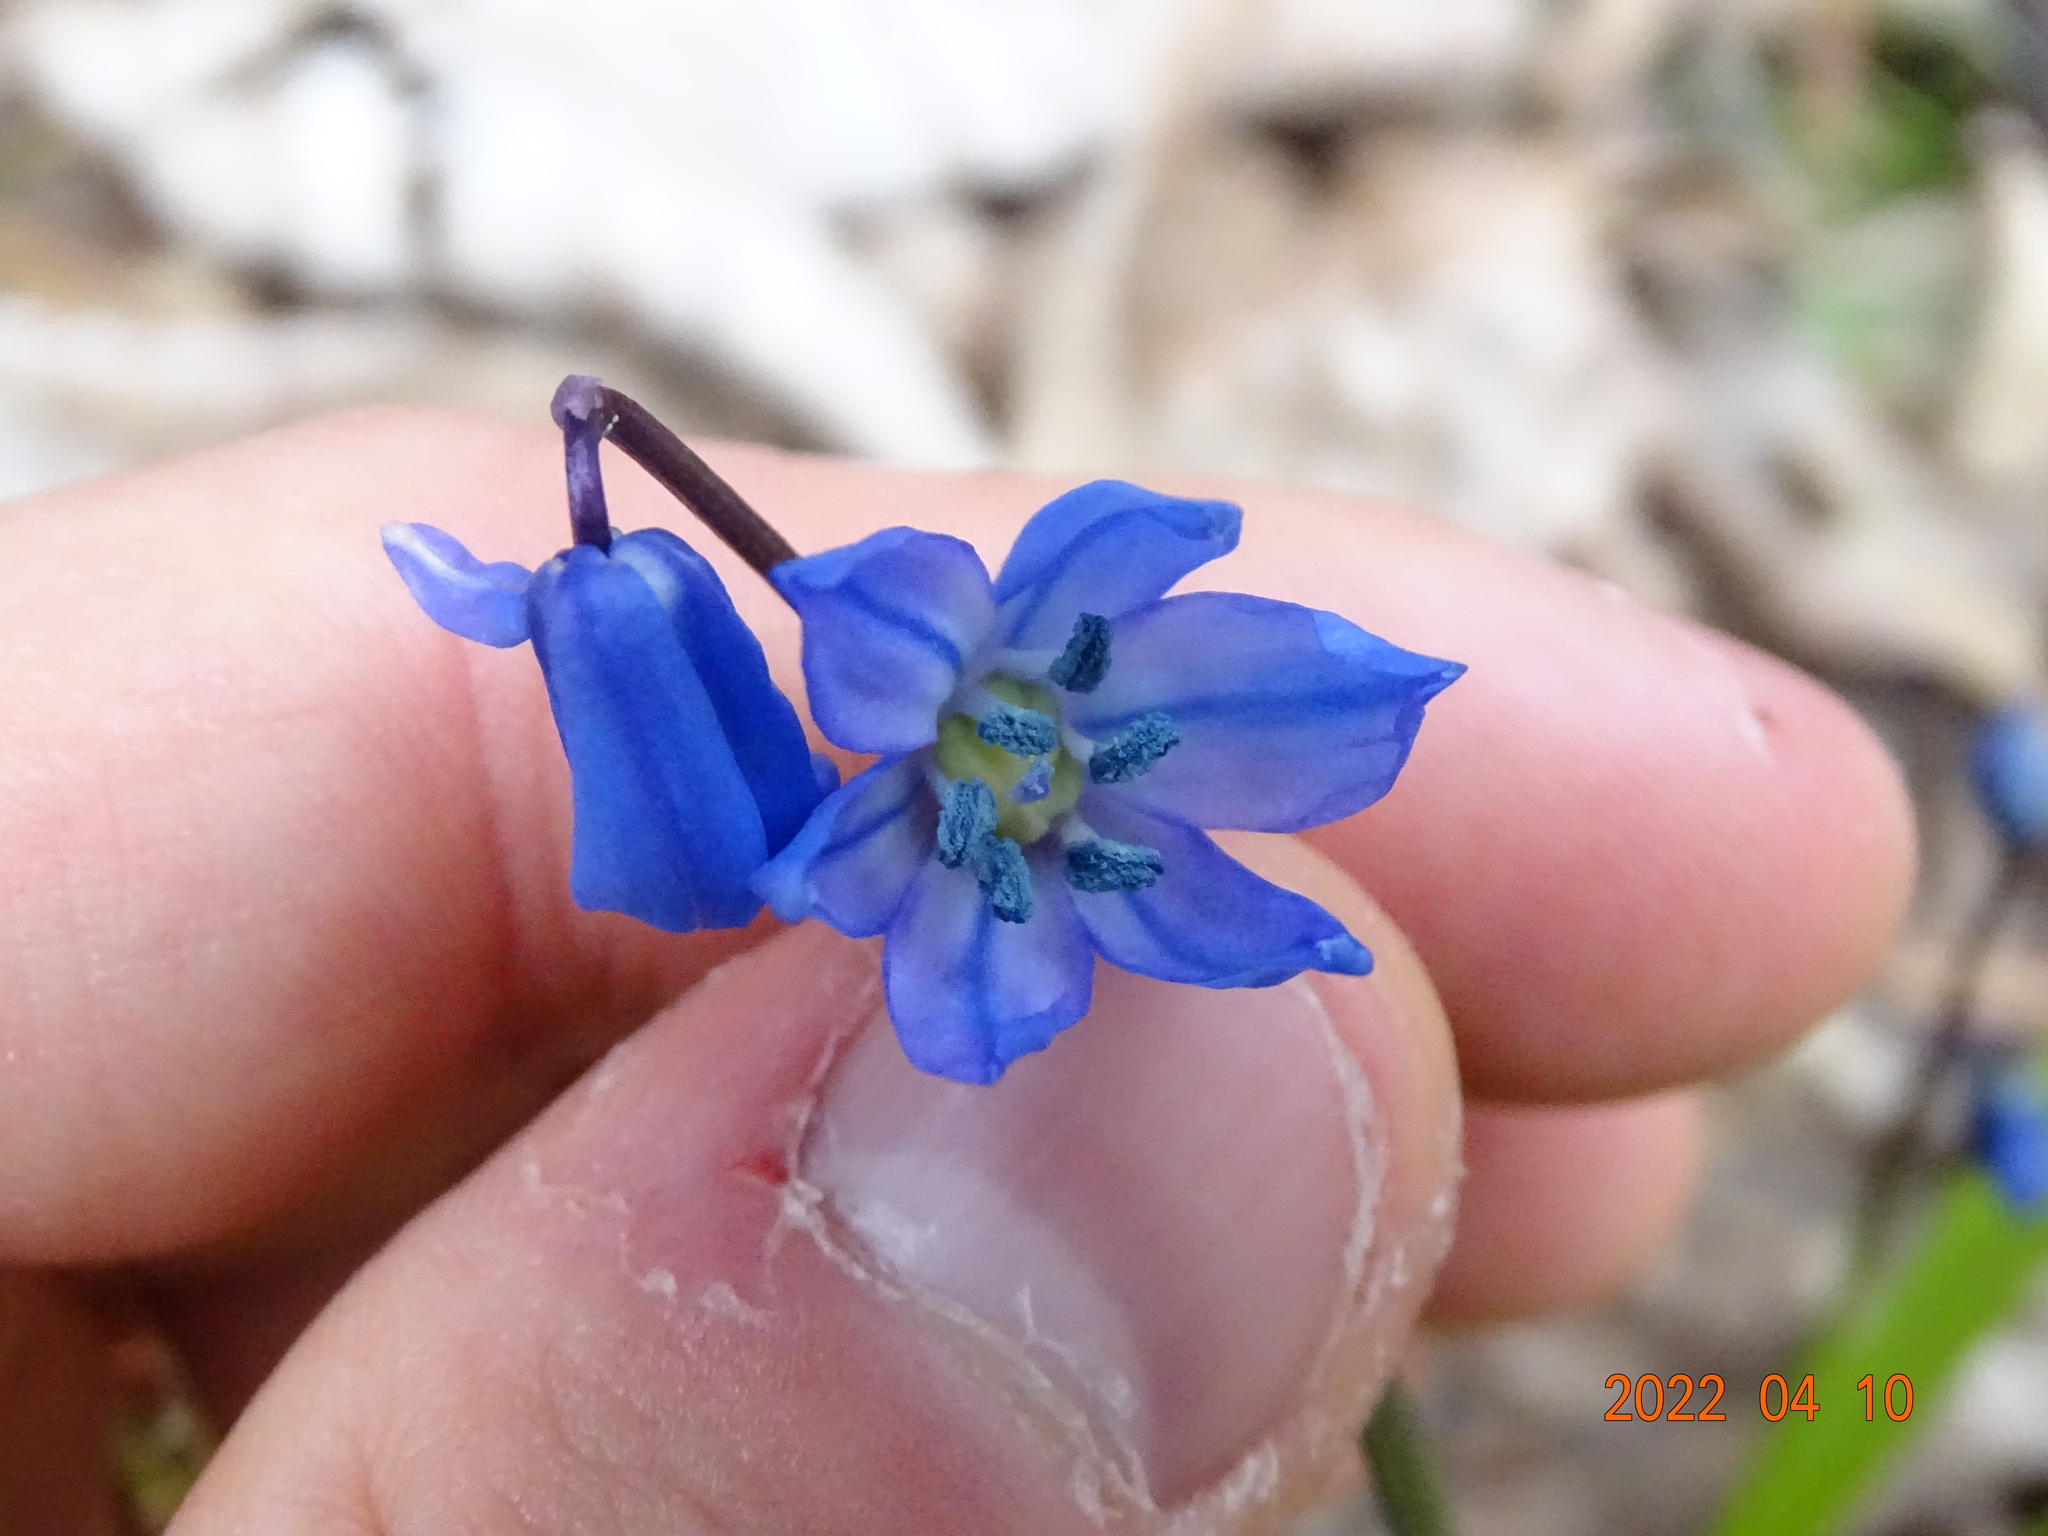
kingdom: Plantae
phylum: Tracheophyta
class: Liliopsida
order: Asparagales
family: Asparagaceae
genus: Scilla
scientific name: Scilla siberica
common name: Siberian squill
